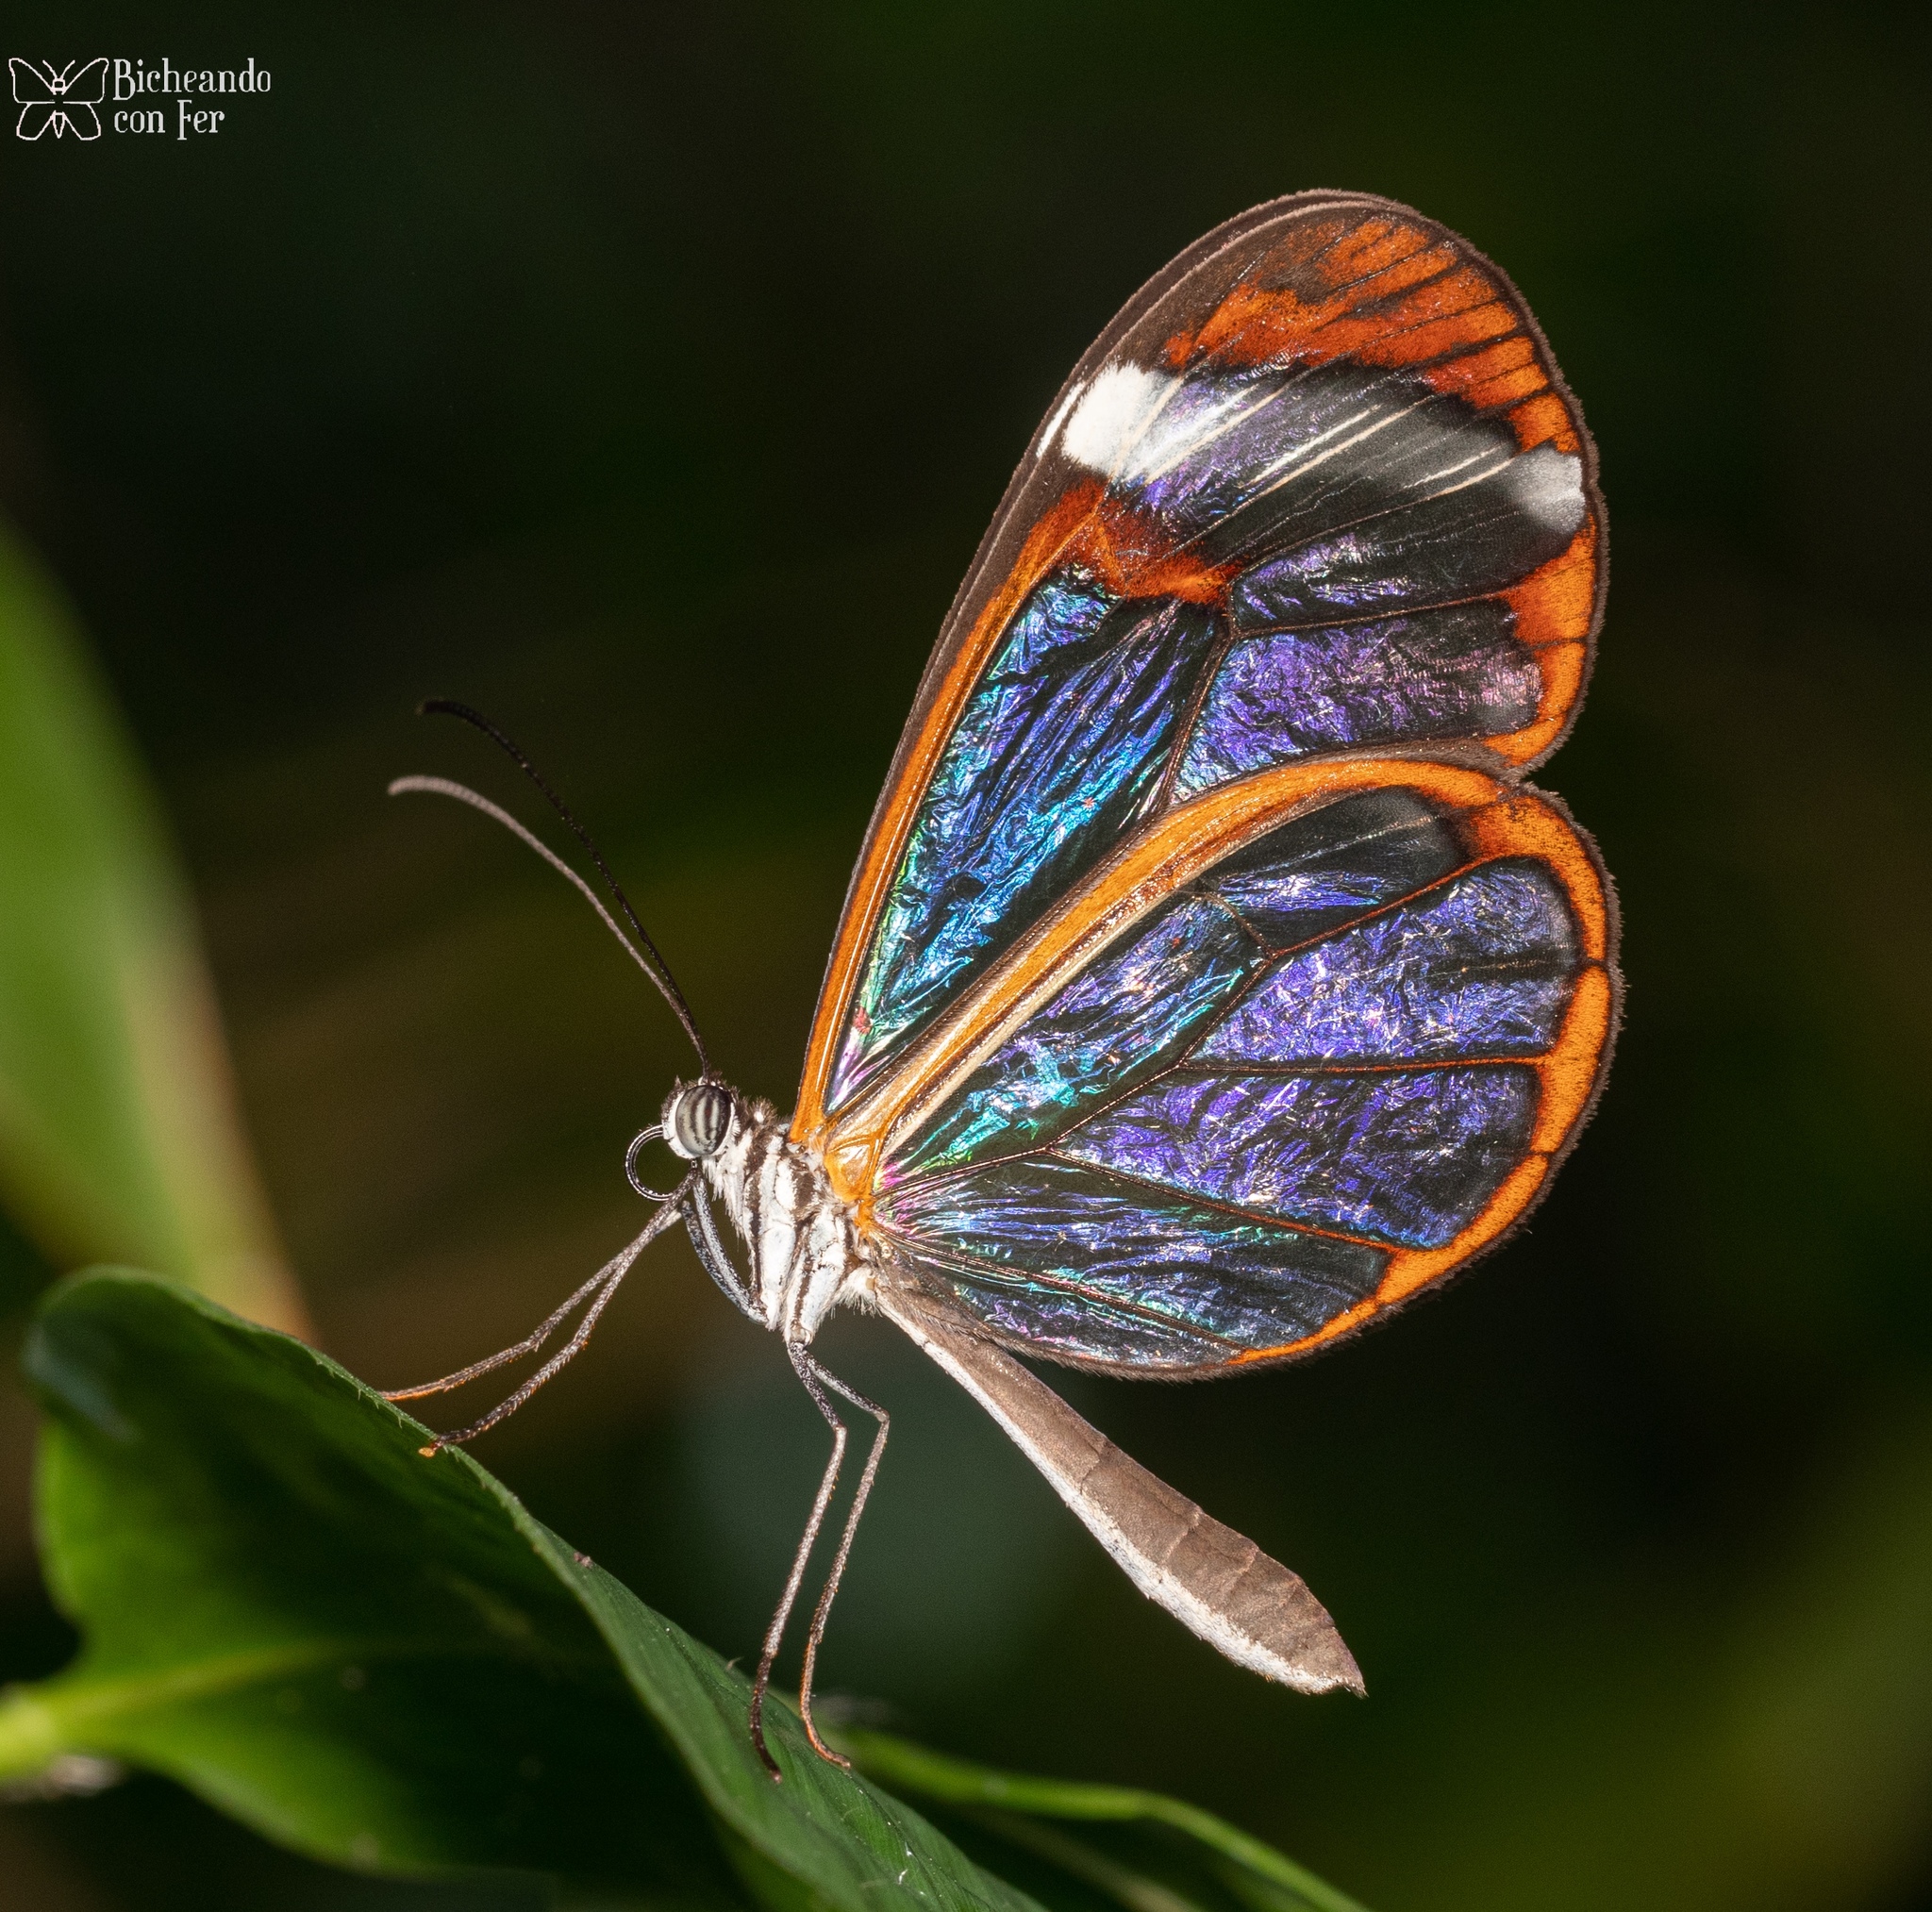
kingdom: Animalia
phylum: Arthropoda
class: Insecta
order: Lepidoptera
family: Nymphalidae
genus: Greta
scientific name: Greta morgane
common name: Thick-tipped greta
